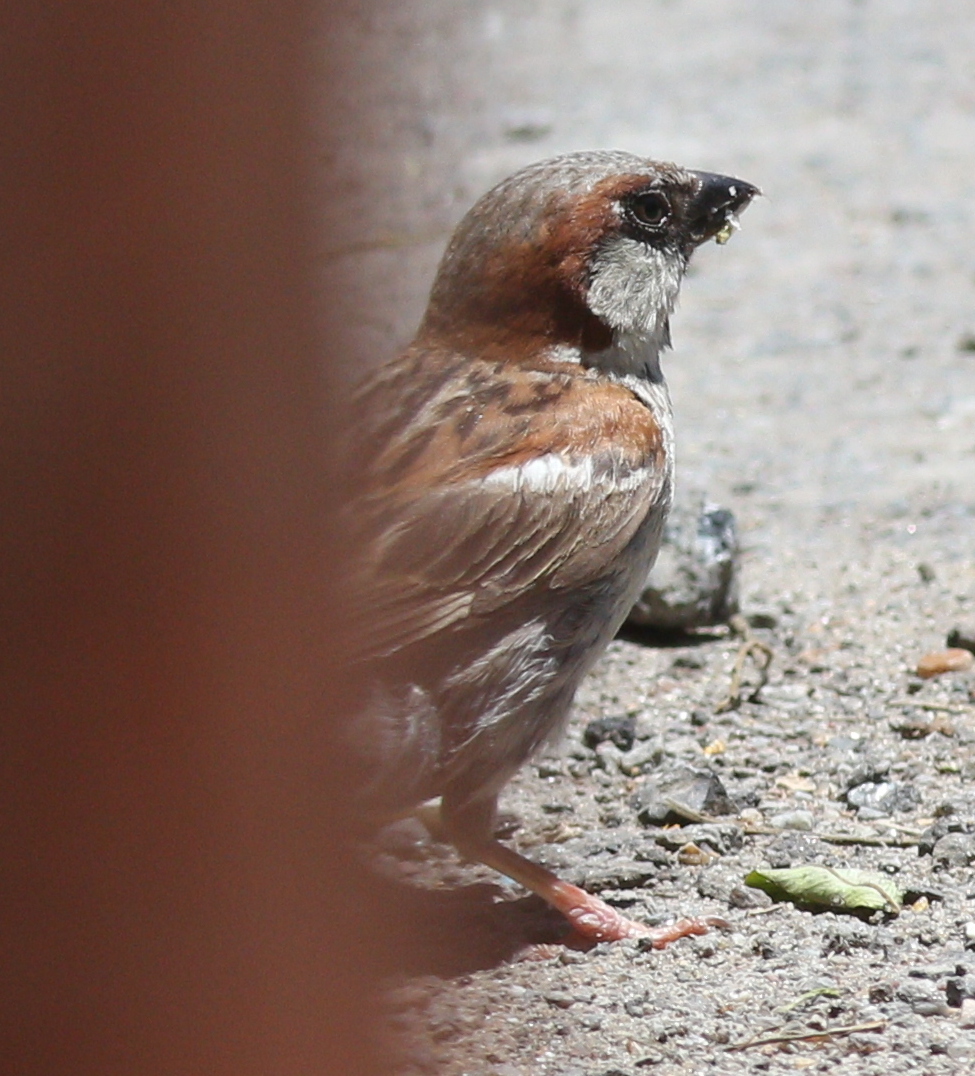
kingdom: Animalia
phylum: Chordata
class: Aves
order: Passeriformes
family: Passeridae
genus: Passer
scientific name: Passer domesticus
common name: House sparrow
